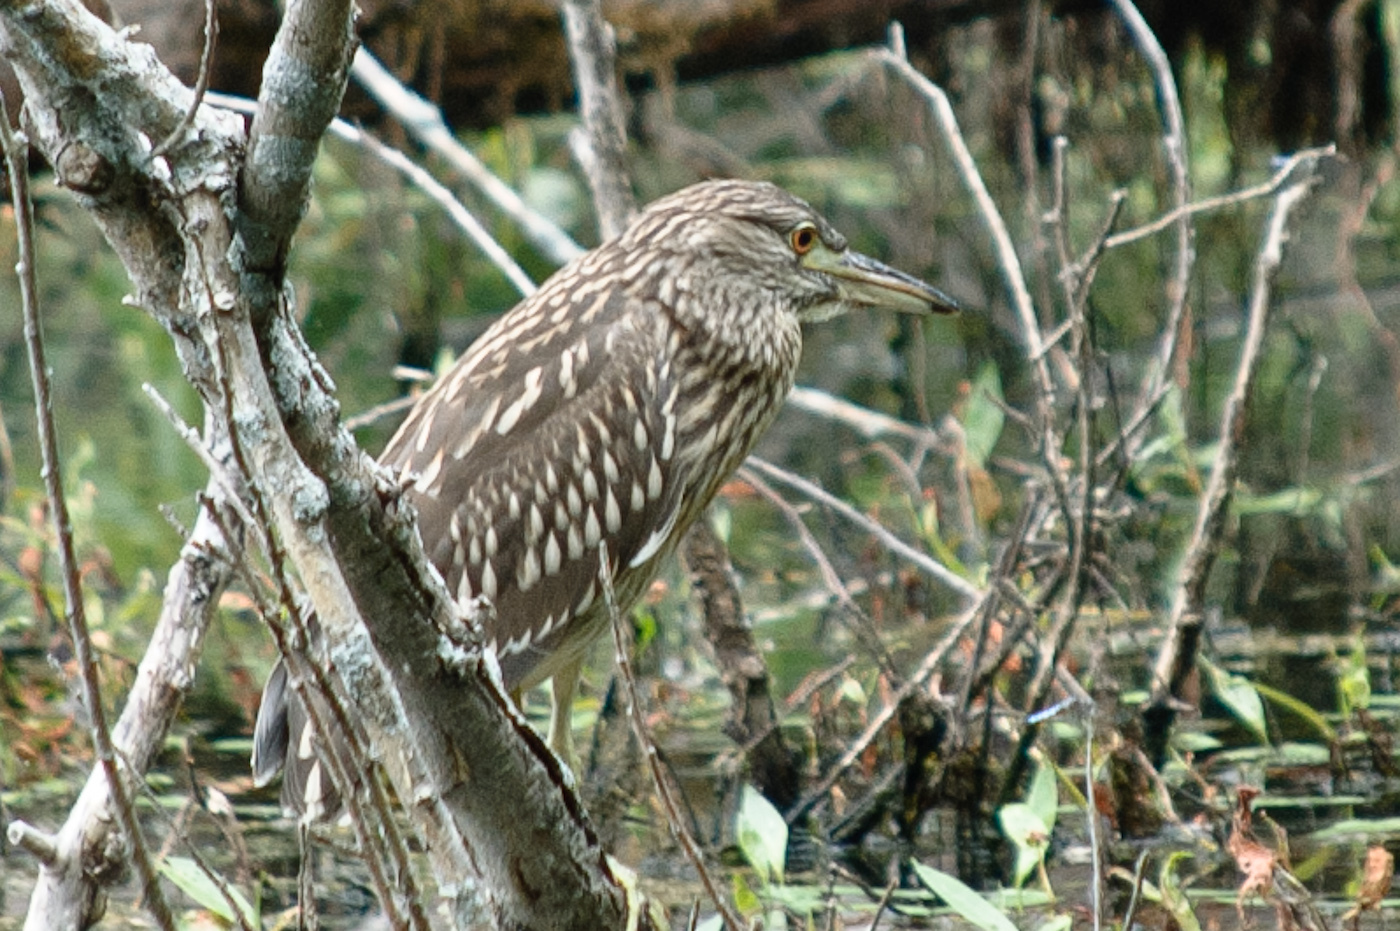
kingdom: Animalia
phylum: Chordata
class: Aves
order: Pelecaniformes
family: Ardeidae
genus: Nycticorax
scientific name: Nycticorax nycticorax
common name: Black-crowned night heron
